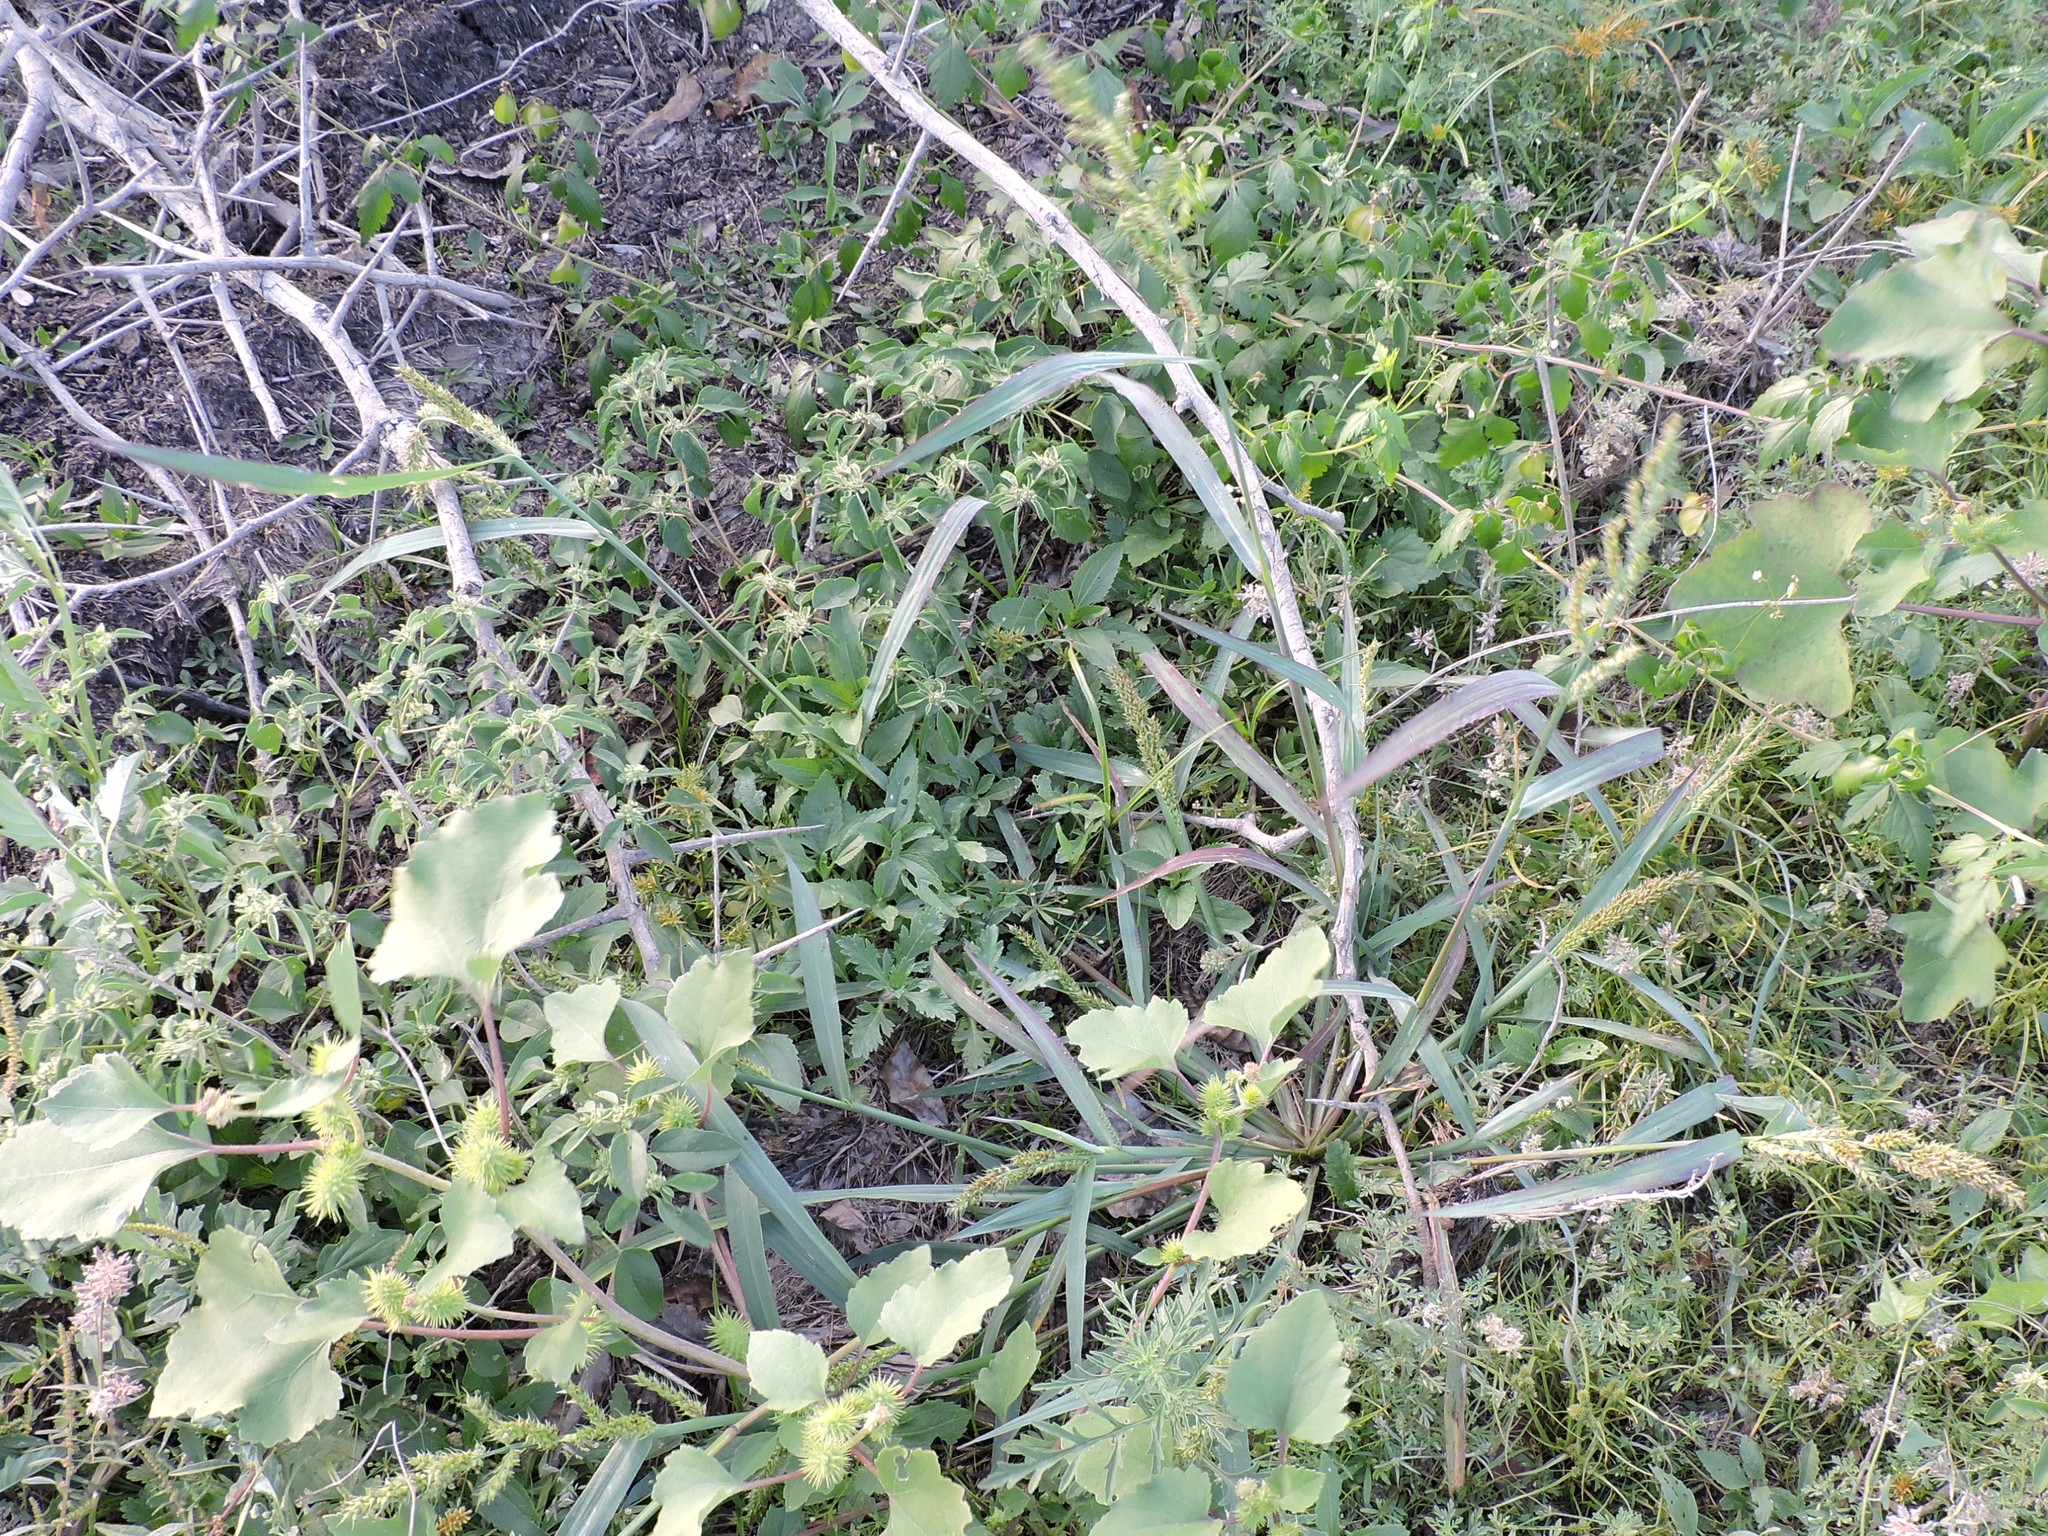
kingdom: Plantae
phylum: Tracheophyta
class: Liliopsida
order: Poales
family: Poaceae
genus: Echinochloa
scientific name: Echinochloa crus-galli
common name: Cockspur
